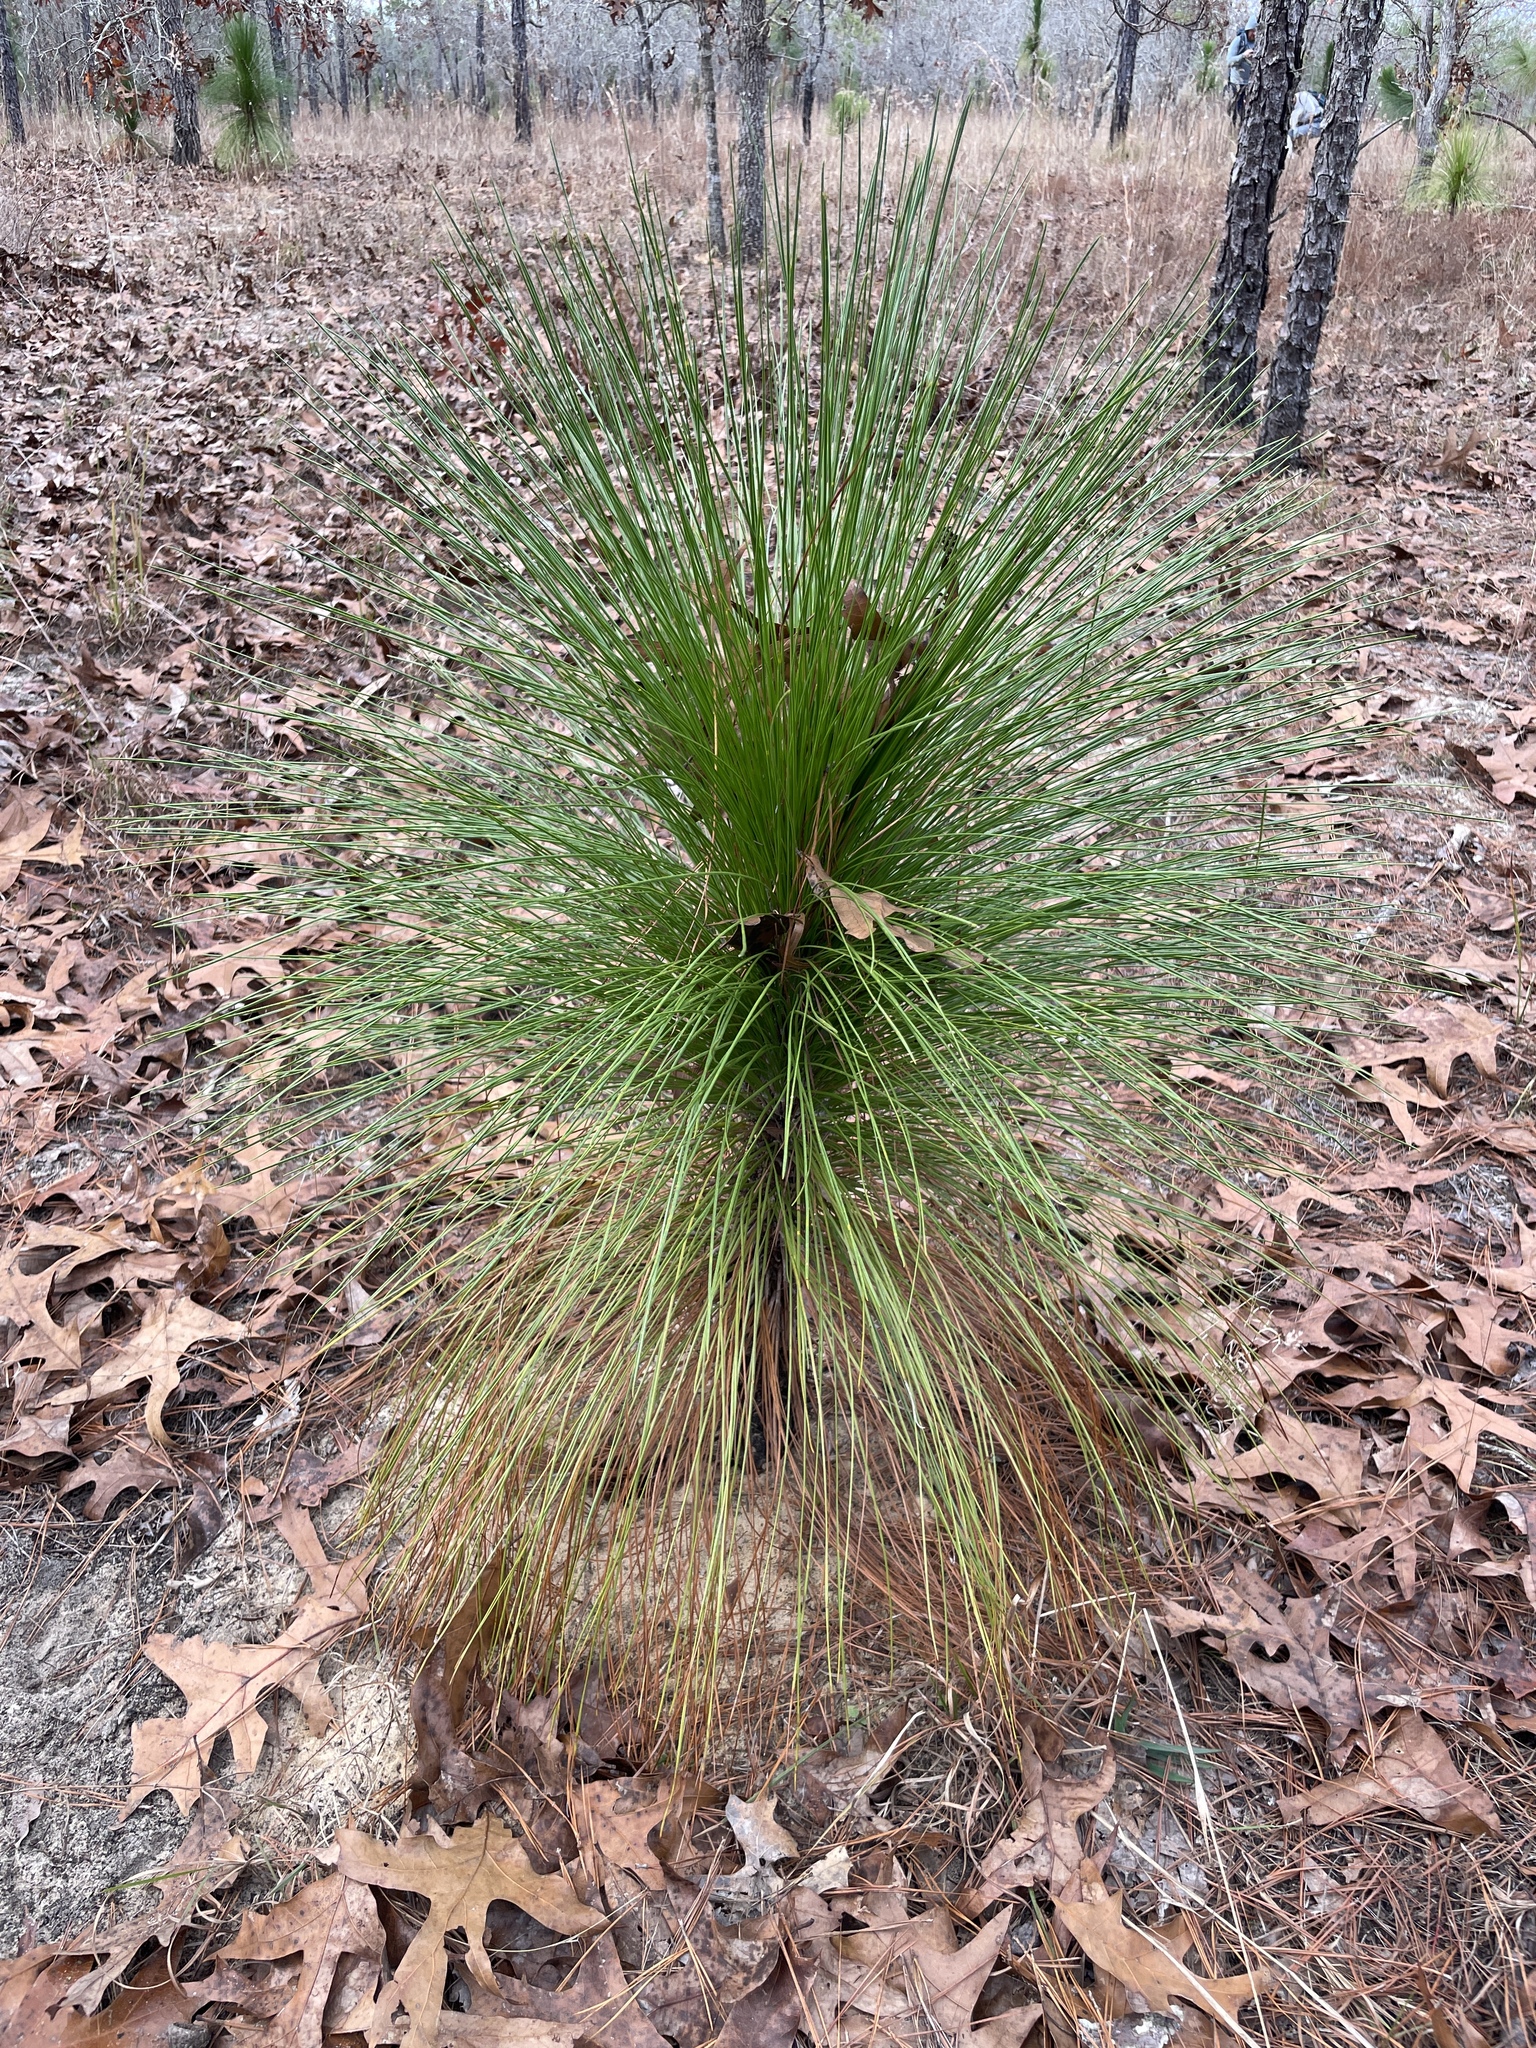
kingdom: Plantae
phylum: Tracheophyta
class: Pinopsida
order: Pinales
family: Pinaceae
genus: Pinus
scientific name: Pinus palustris
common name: Longleaf pine
